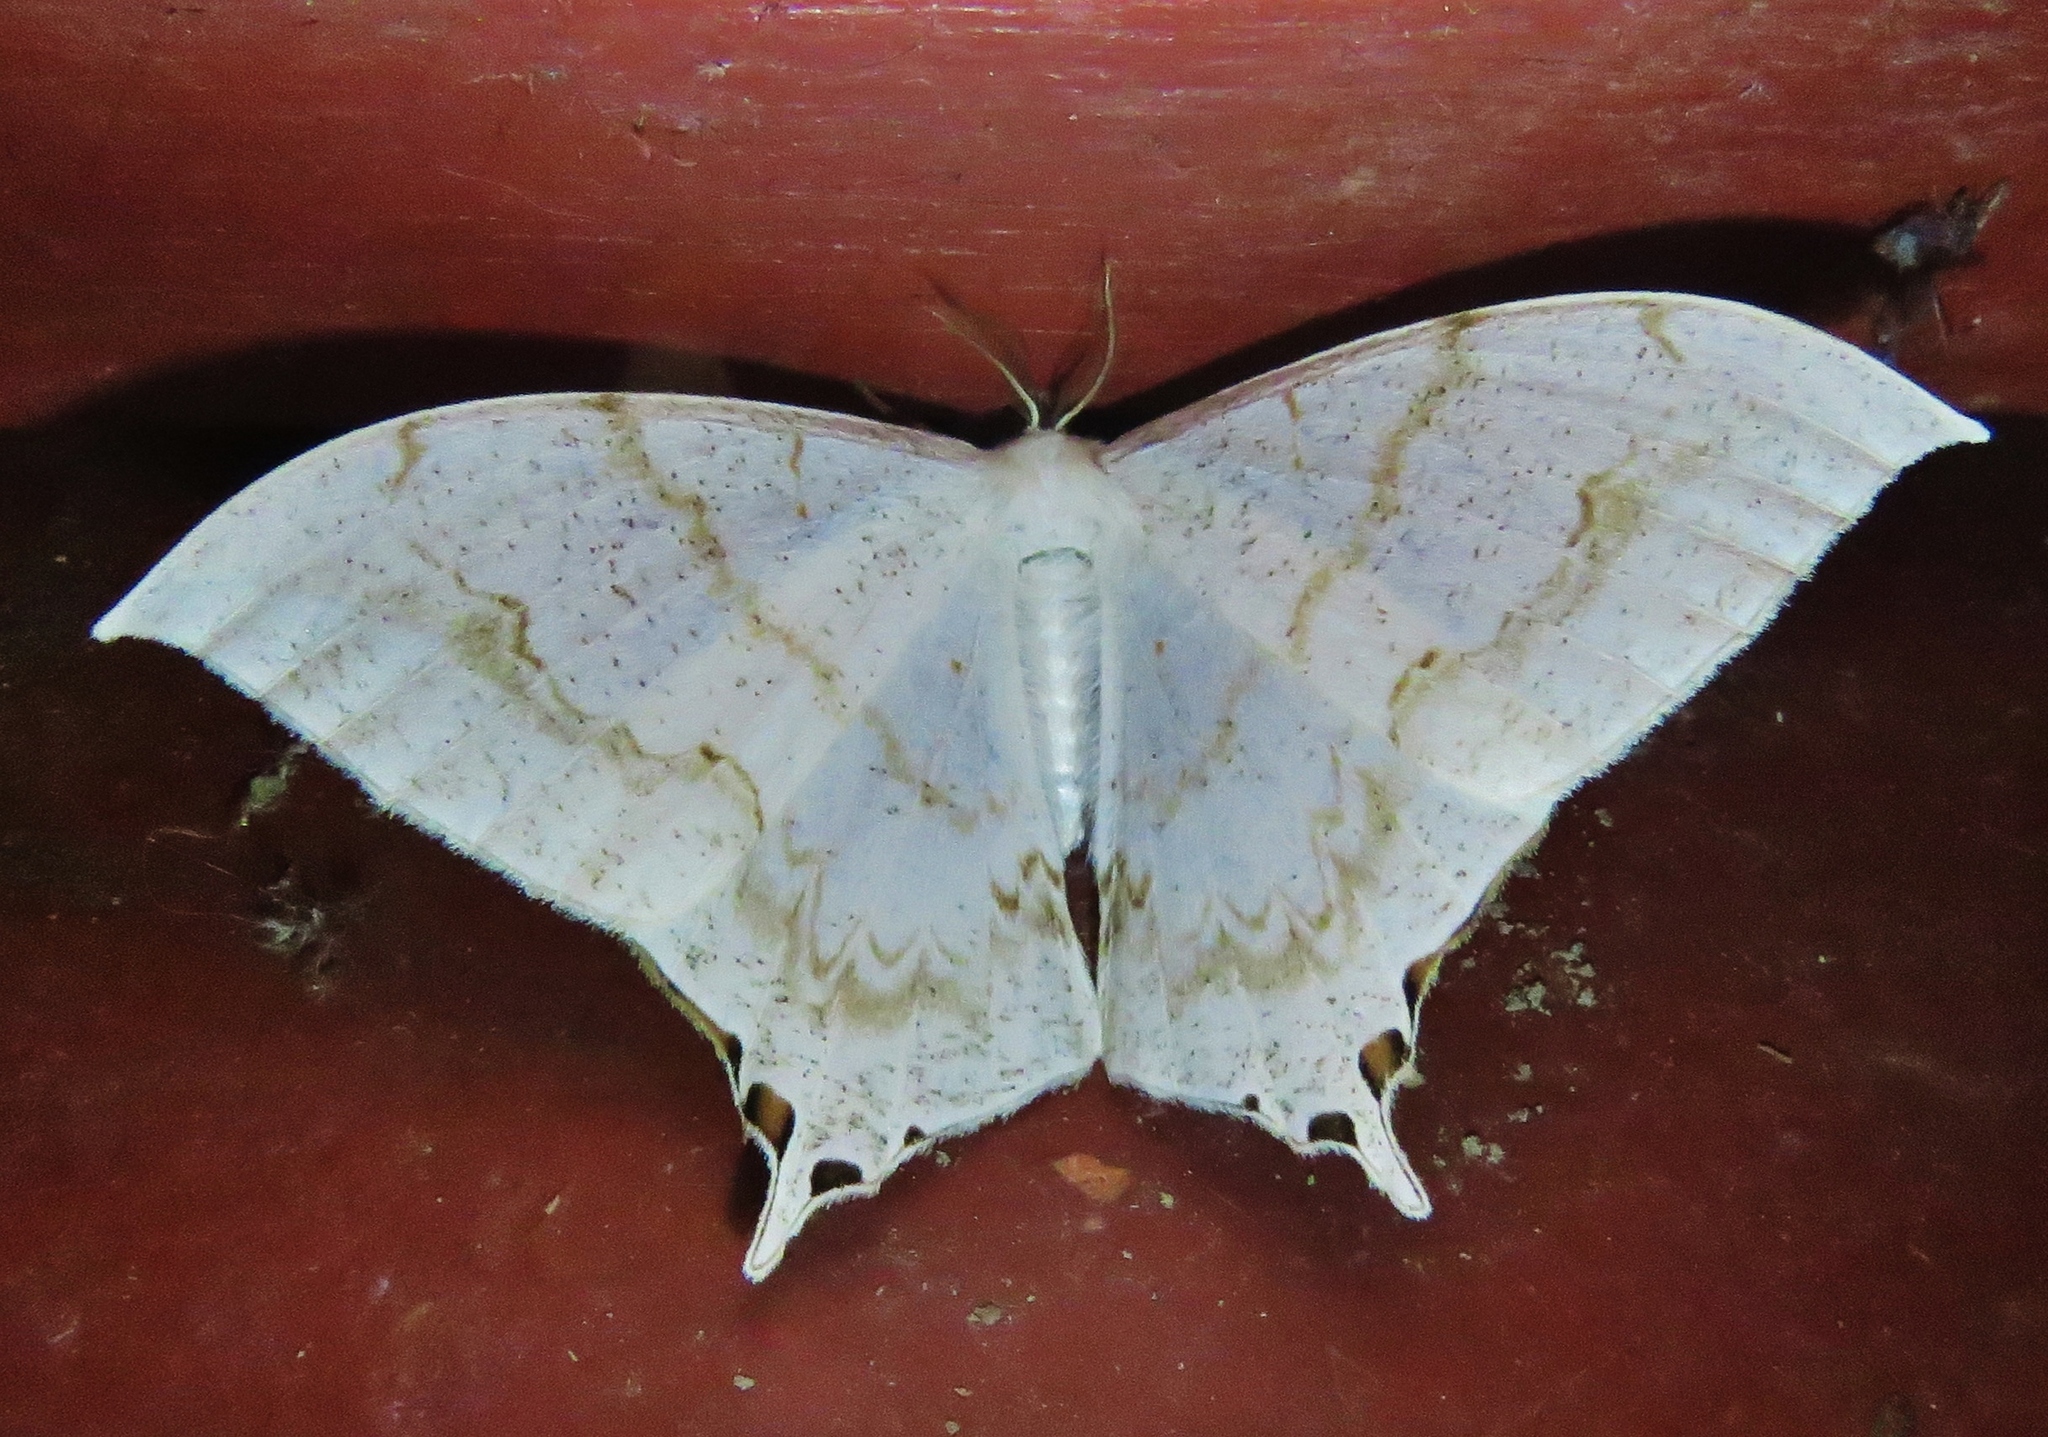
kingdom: Animalia
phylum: Arthropoda
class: Insecta
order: Lepidoptera
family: Saturniidae
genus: Therinia
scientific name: Therinia lactucina
